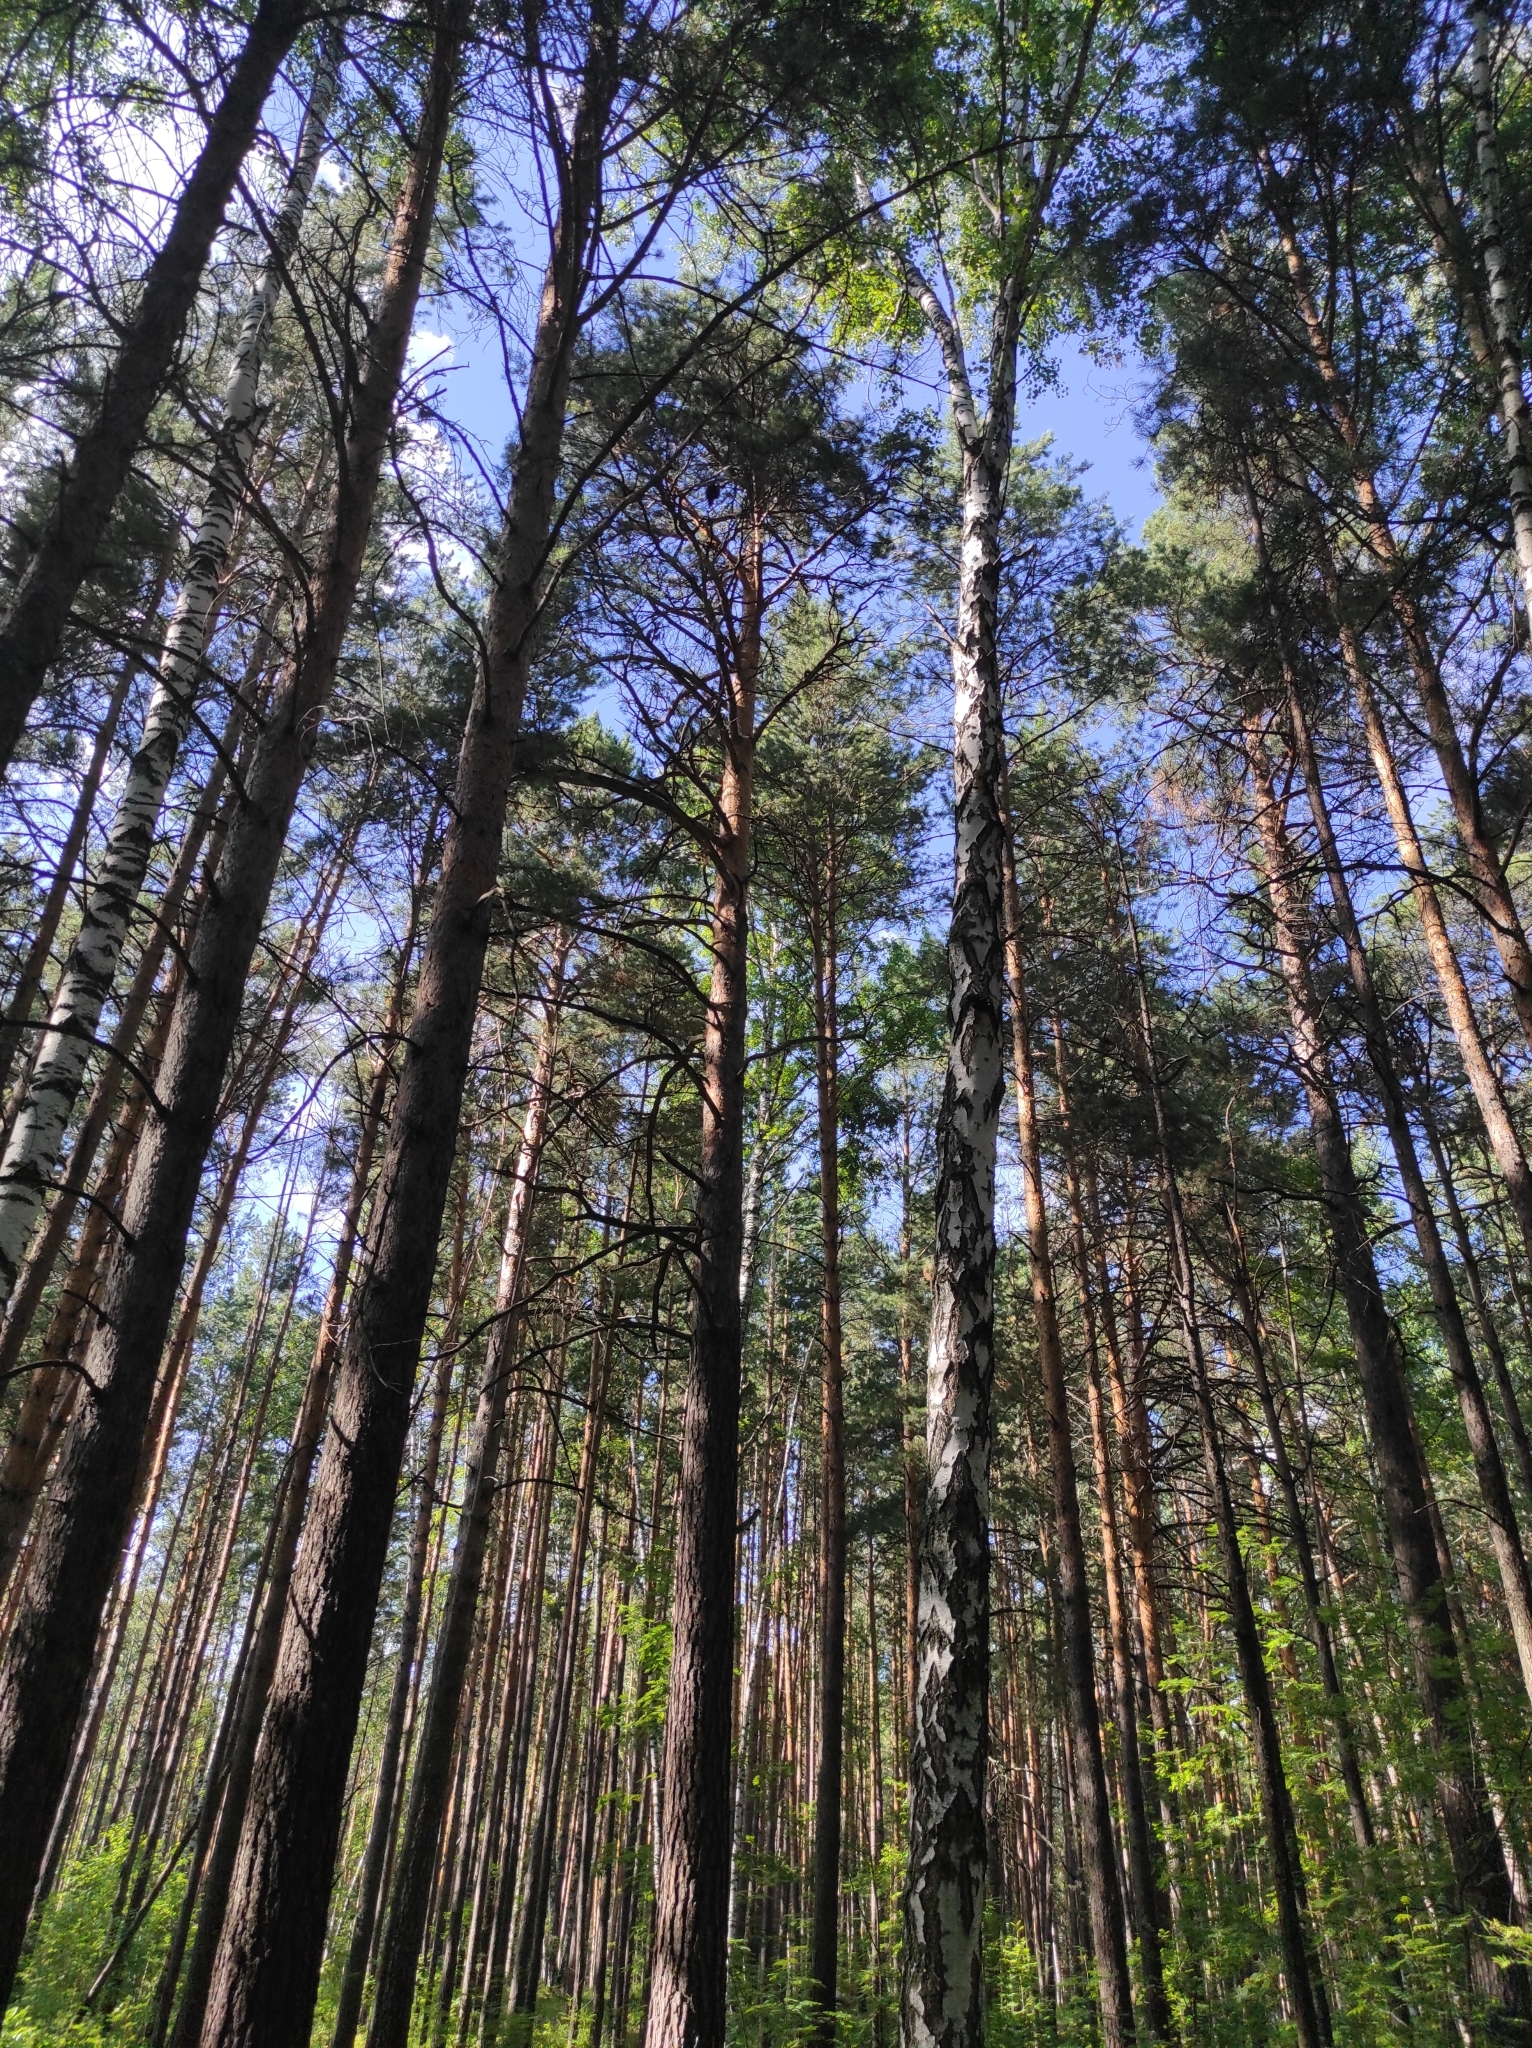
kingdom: Plantae
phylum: Tracheophyta
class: Magnoliopsida
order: Fagales
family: Betulaceae
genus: Betula
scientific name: Betula pendula
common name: Silver birch
